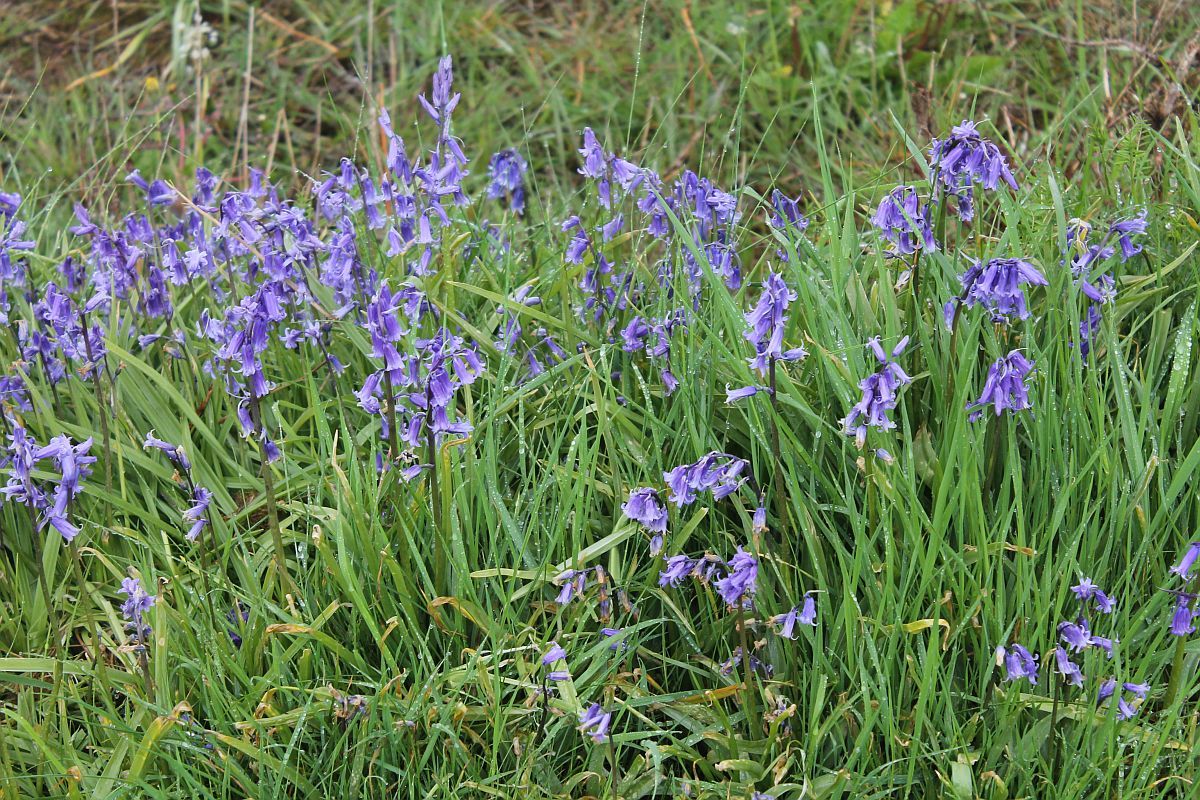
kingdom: Plantae
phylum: Tracheophyta
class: Liliopsida
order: Asparagales
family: Asparagaceae
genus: Hyacinthoides
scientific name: Hyacinthoides non-scripta
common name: Bluebell
